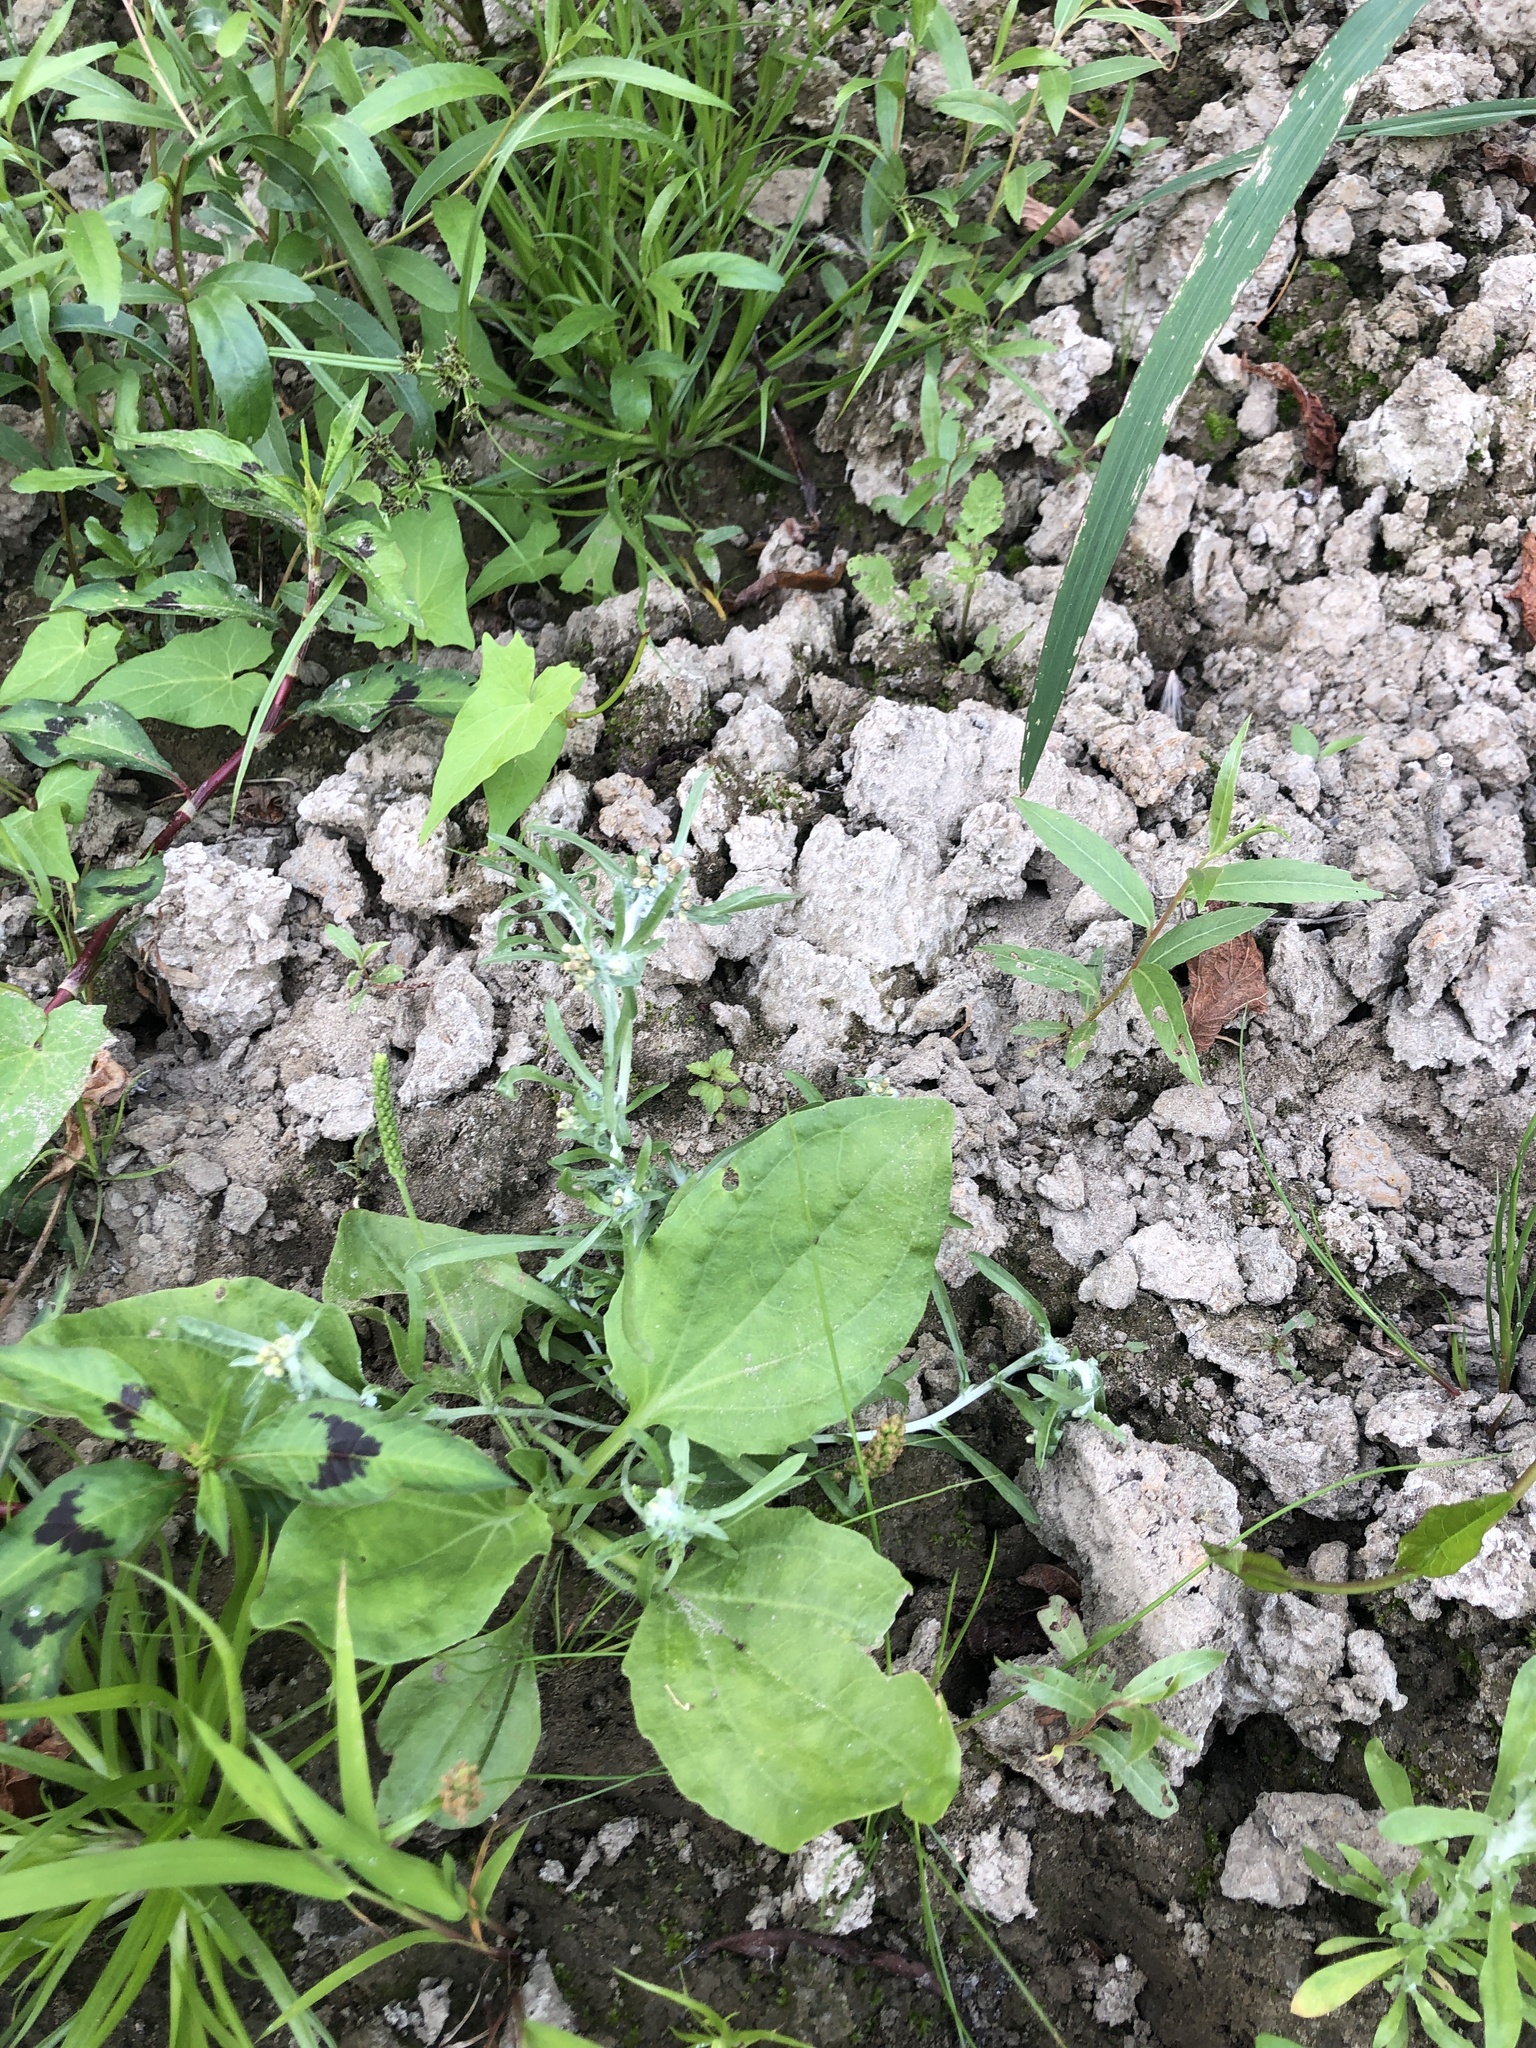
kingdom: Plantae
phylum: Tracheophyta
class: Magnoliopsida
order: Asterales
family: Asteraceae
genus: Gnaphalium
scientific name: Gnaphalium uliginosum
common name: Marsh cudweed
